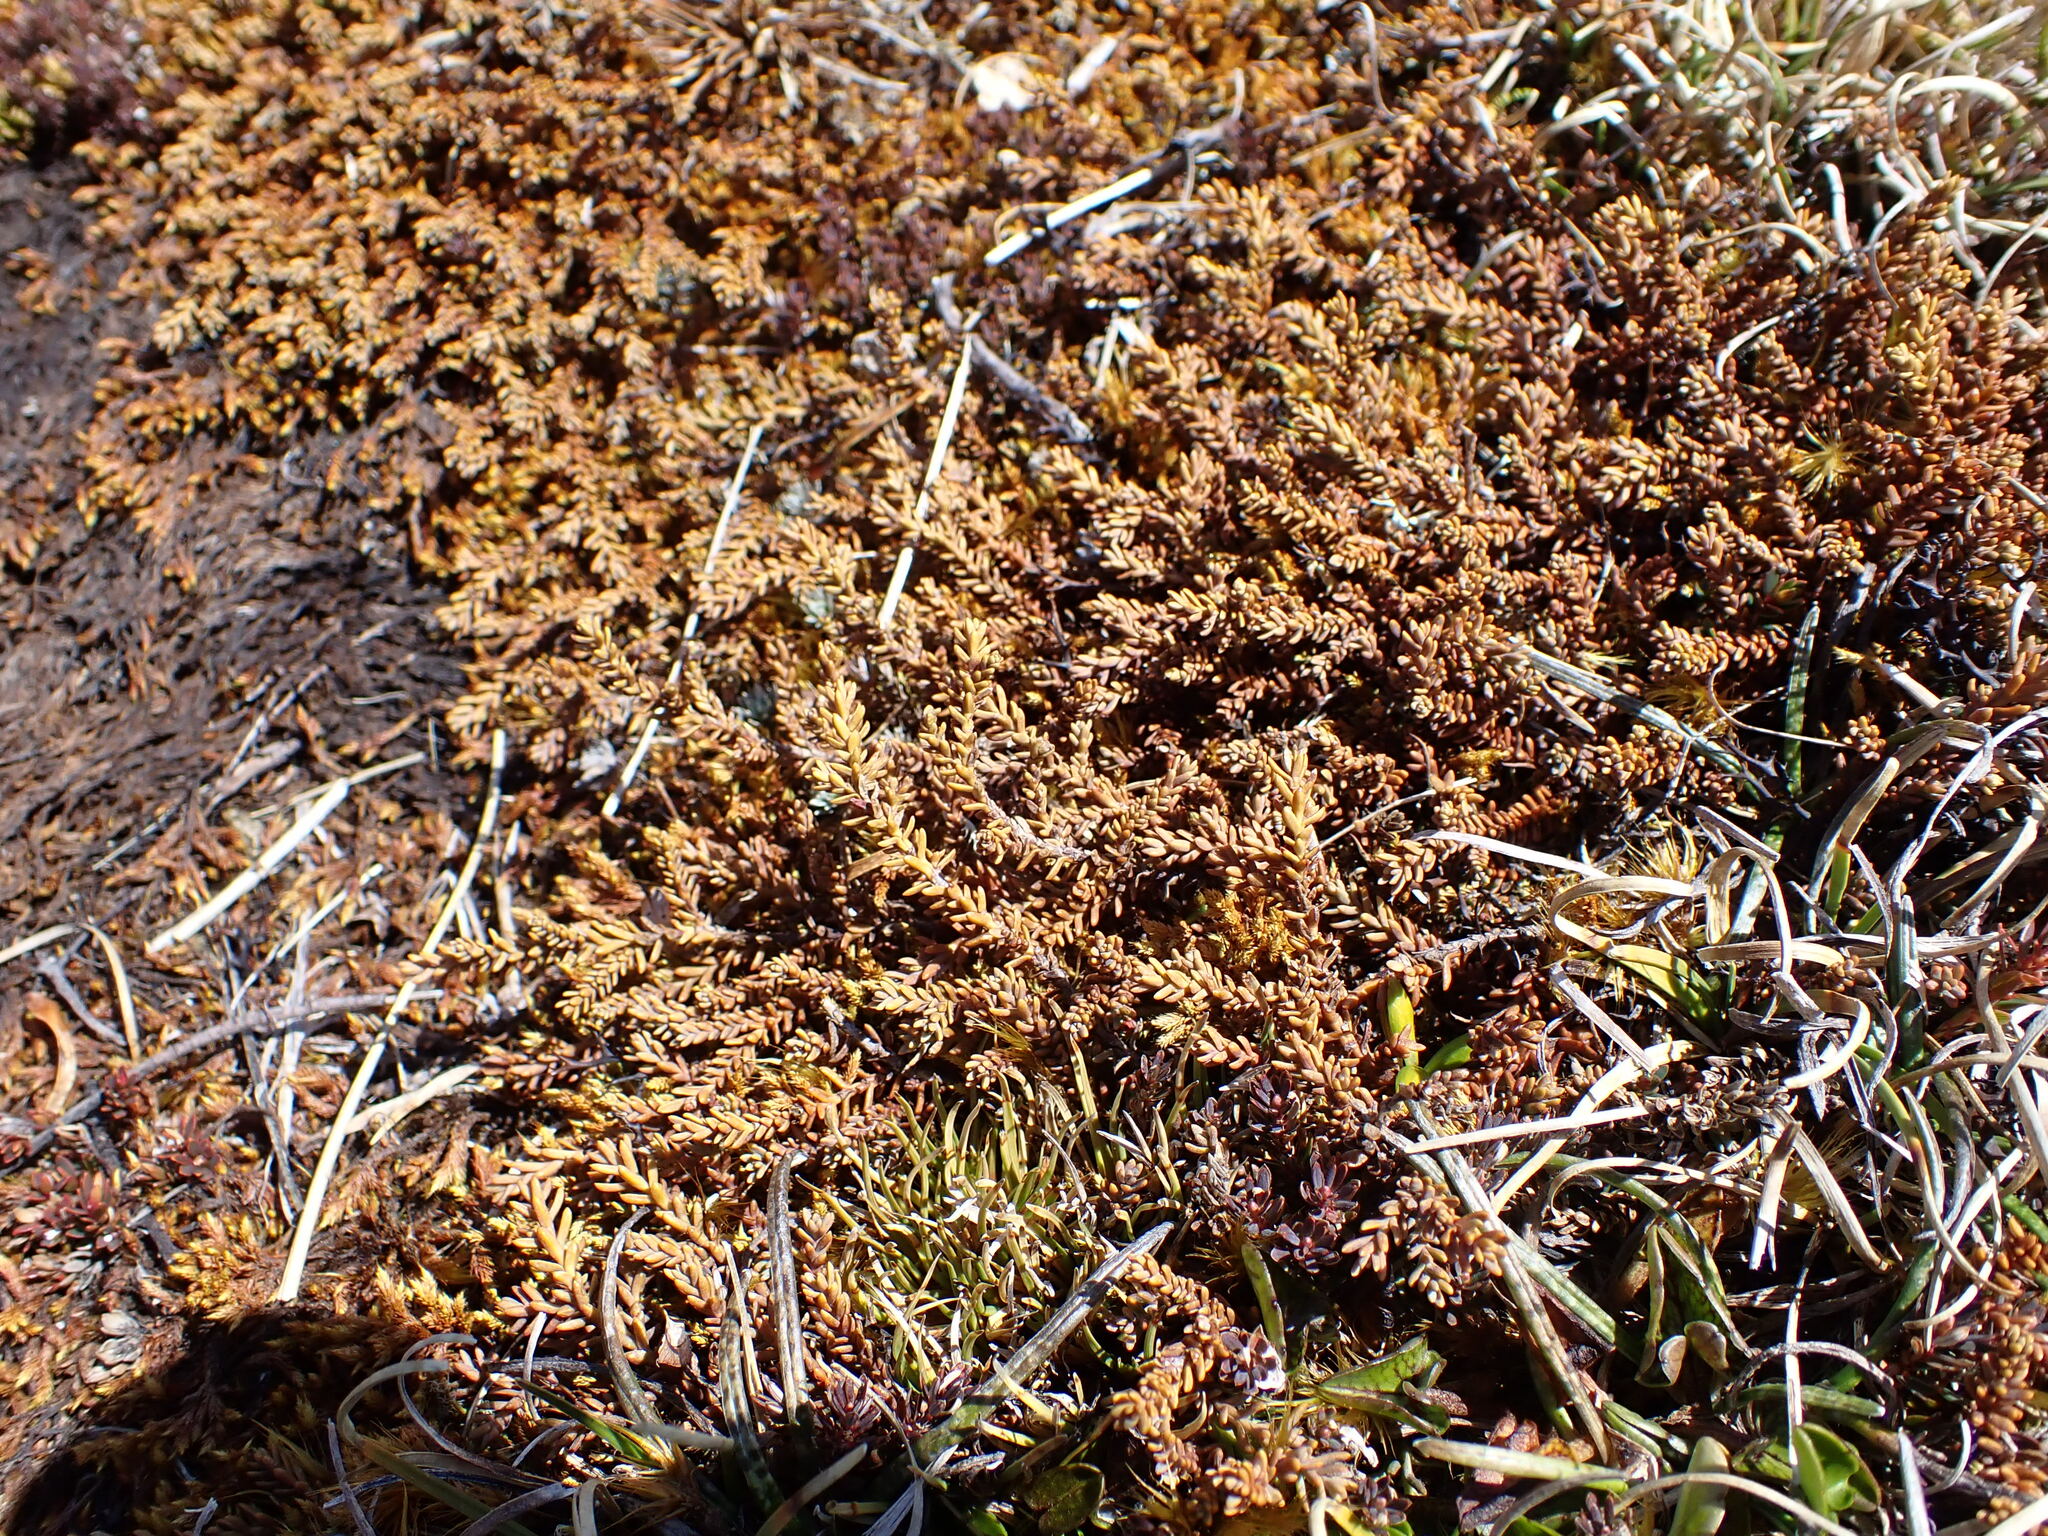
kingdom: Plantae
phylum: Tracheophyta
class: Pinopsida
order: Pinales
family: Podocarpaceae
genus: Lepidothamnus
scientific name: Lepidothamnus laxifolius
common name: Pygmy pine
